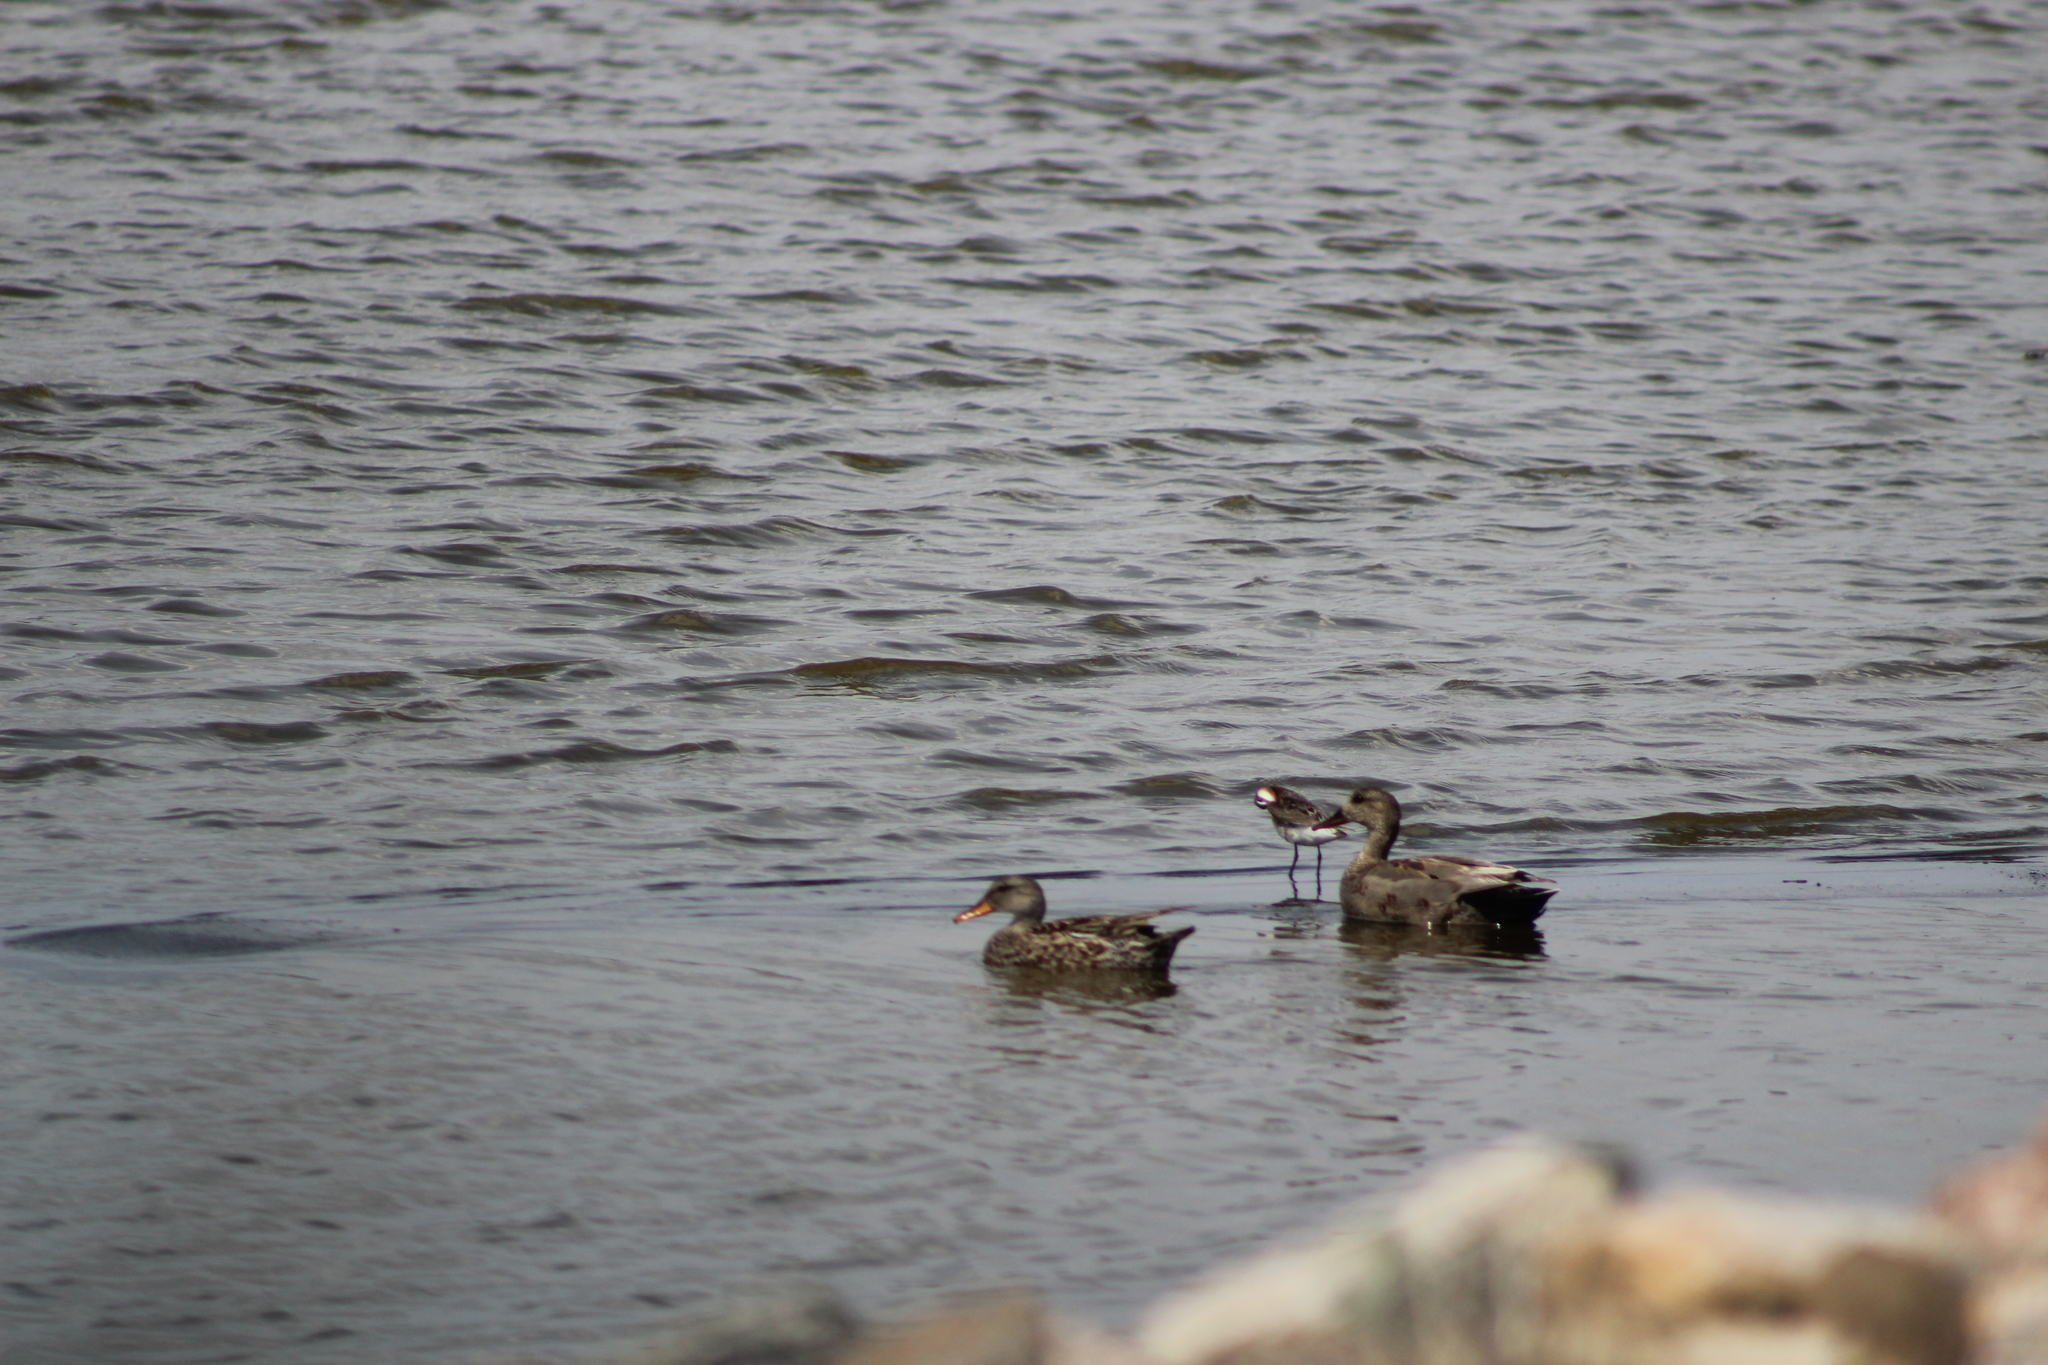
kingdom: Animalia
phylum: Chordata
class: Aves
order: Anseriformes
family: Anatidae
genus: Mareca
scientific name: Mareca strepera
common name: Gadwall
